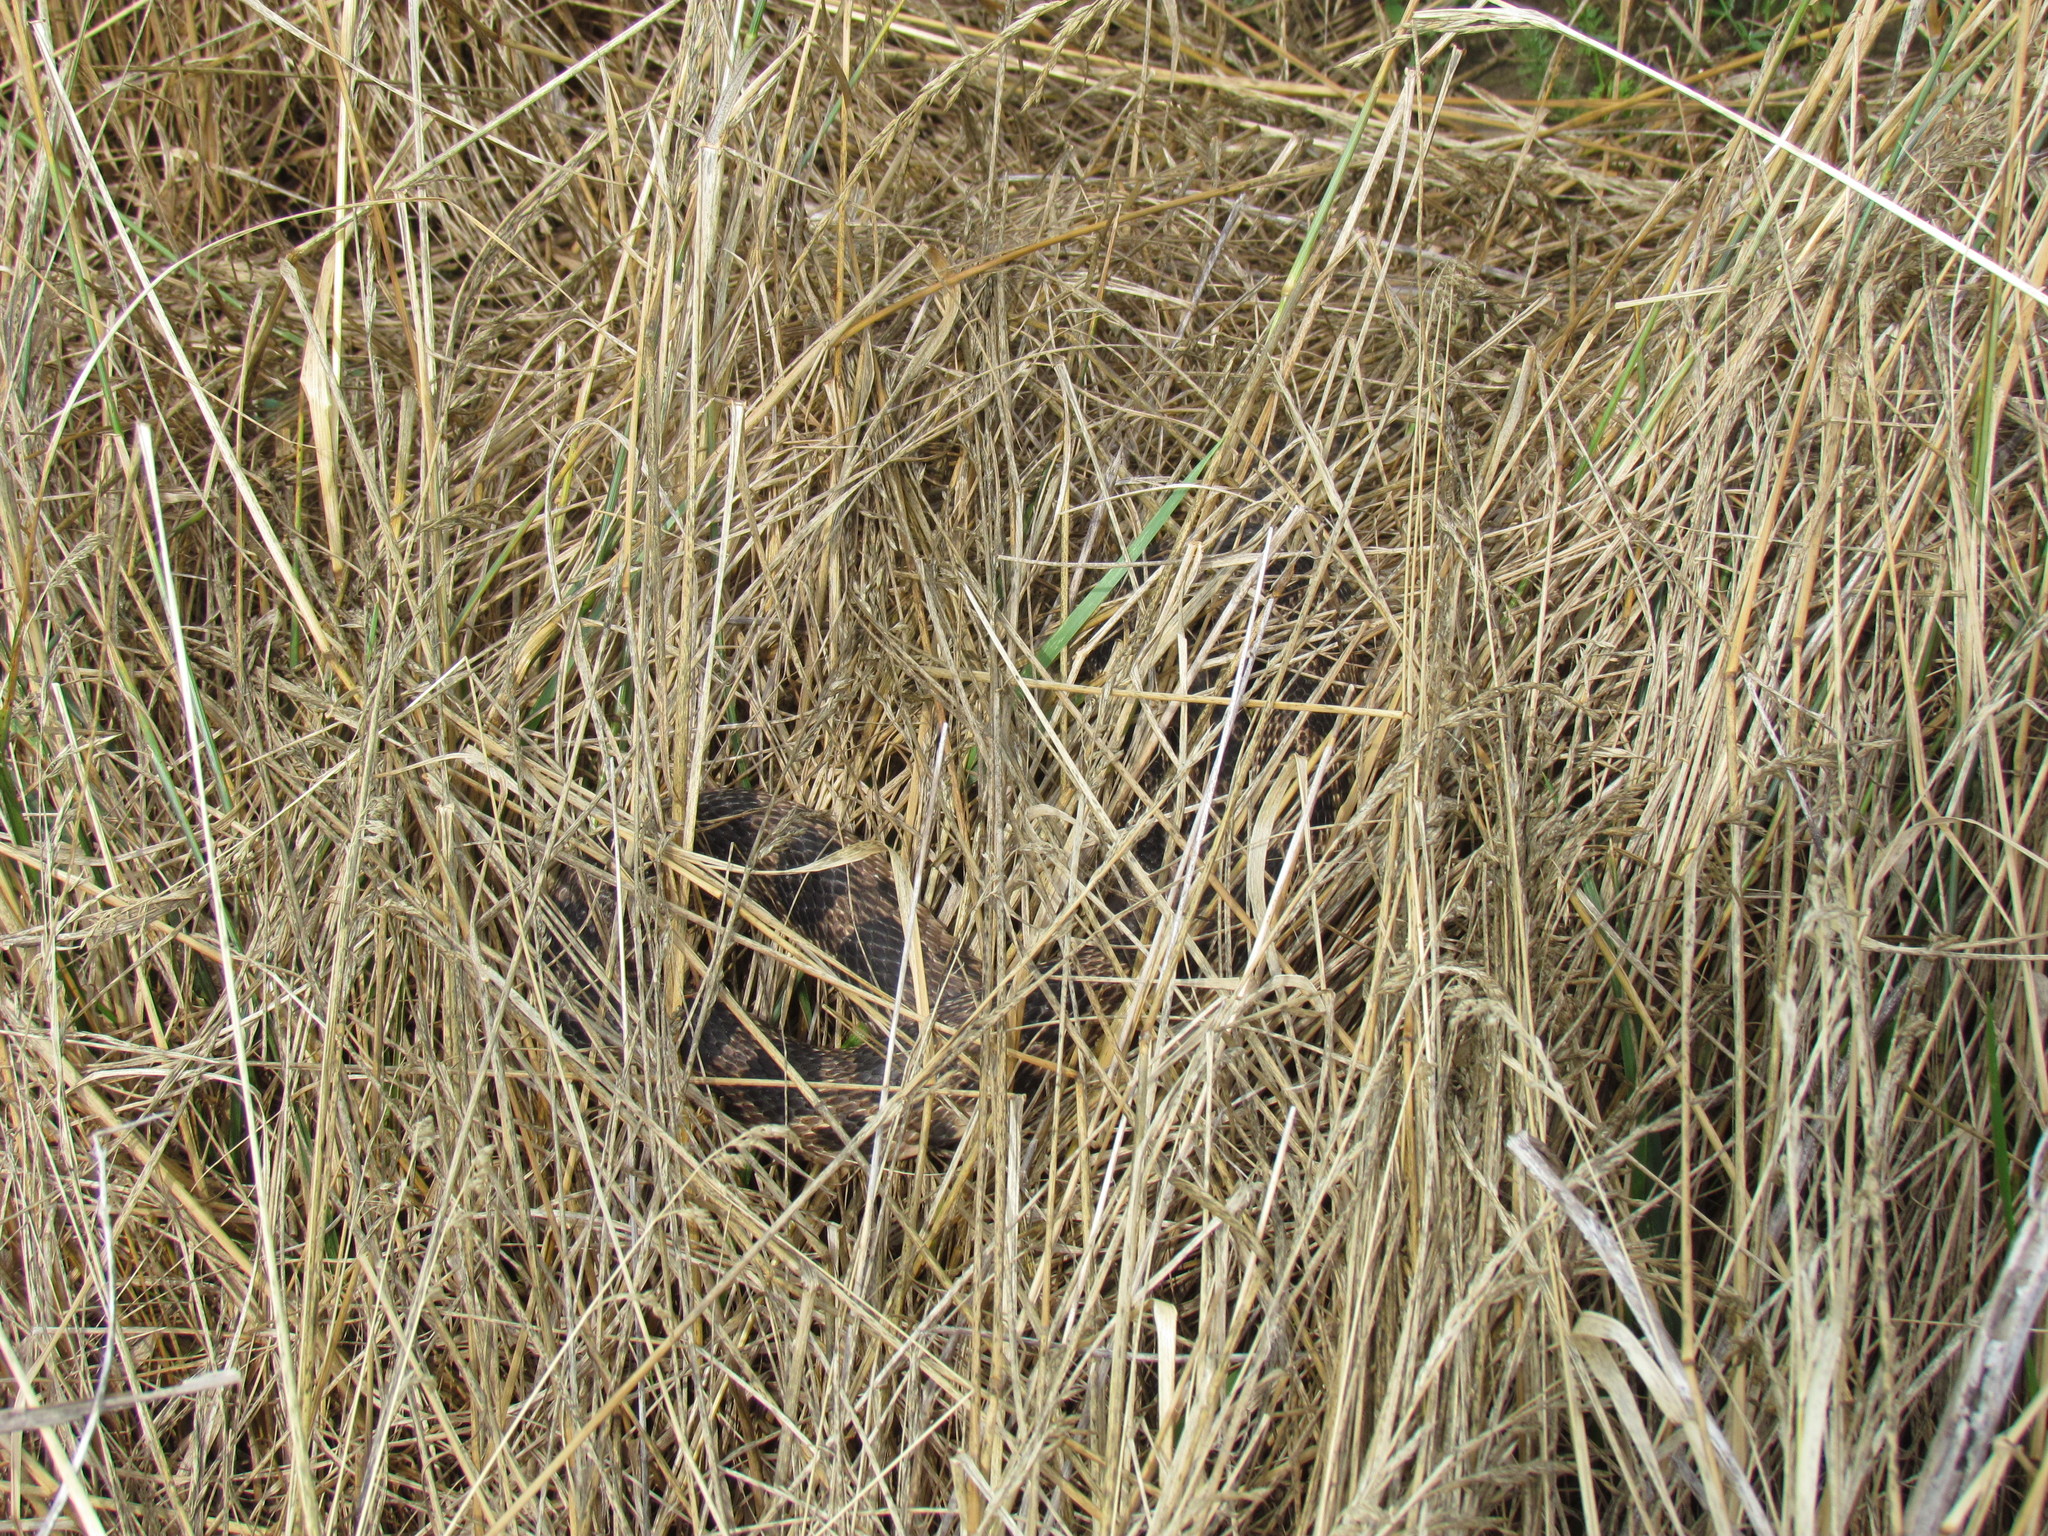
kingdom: Animalia
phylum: Chordata
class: Squamata
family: Colubridae
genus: Pantherophis
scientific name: Pantherophis vulpinus
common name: Eastern fox snake
